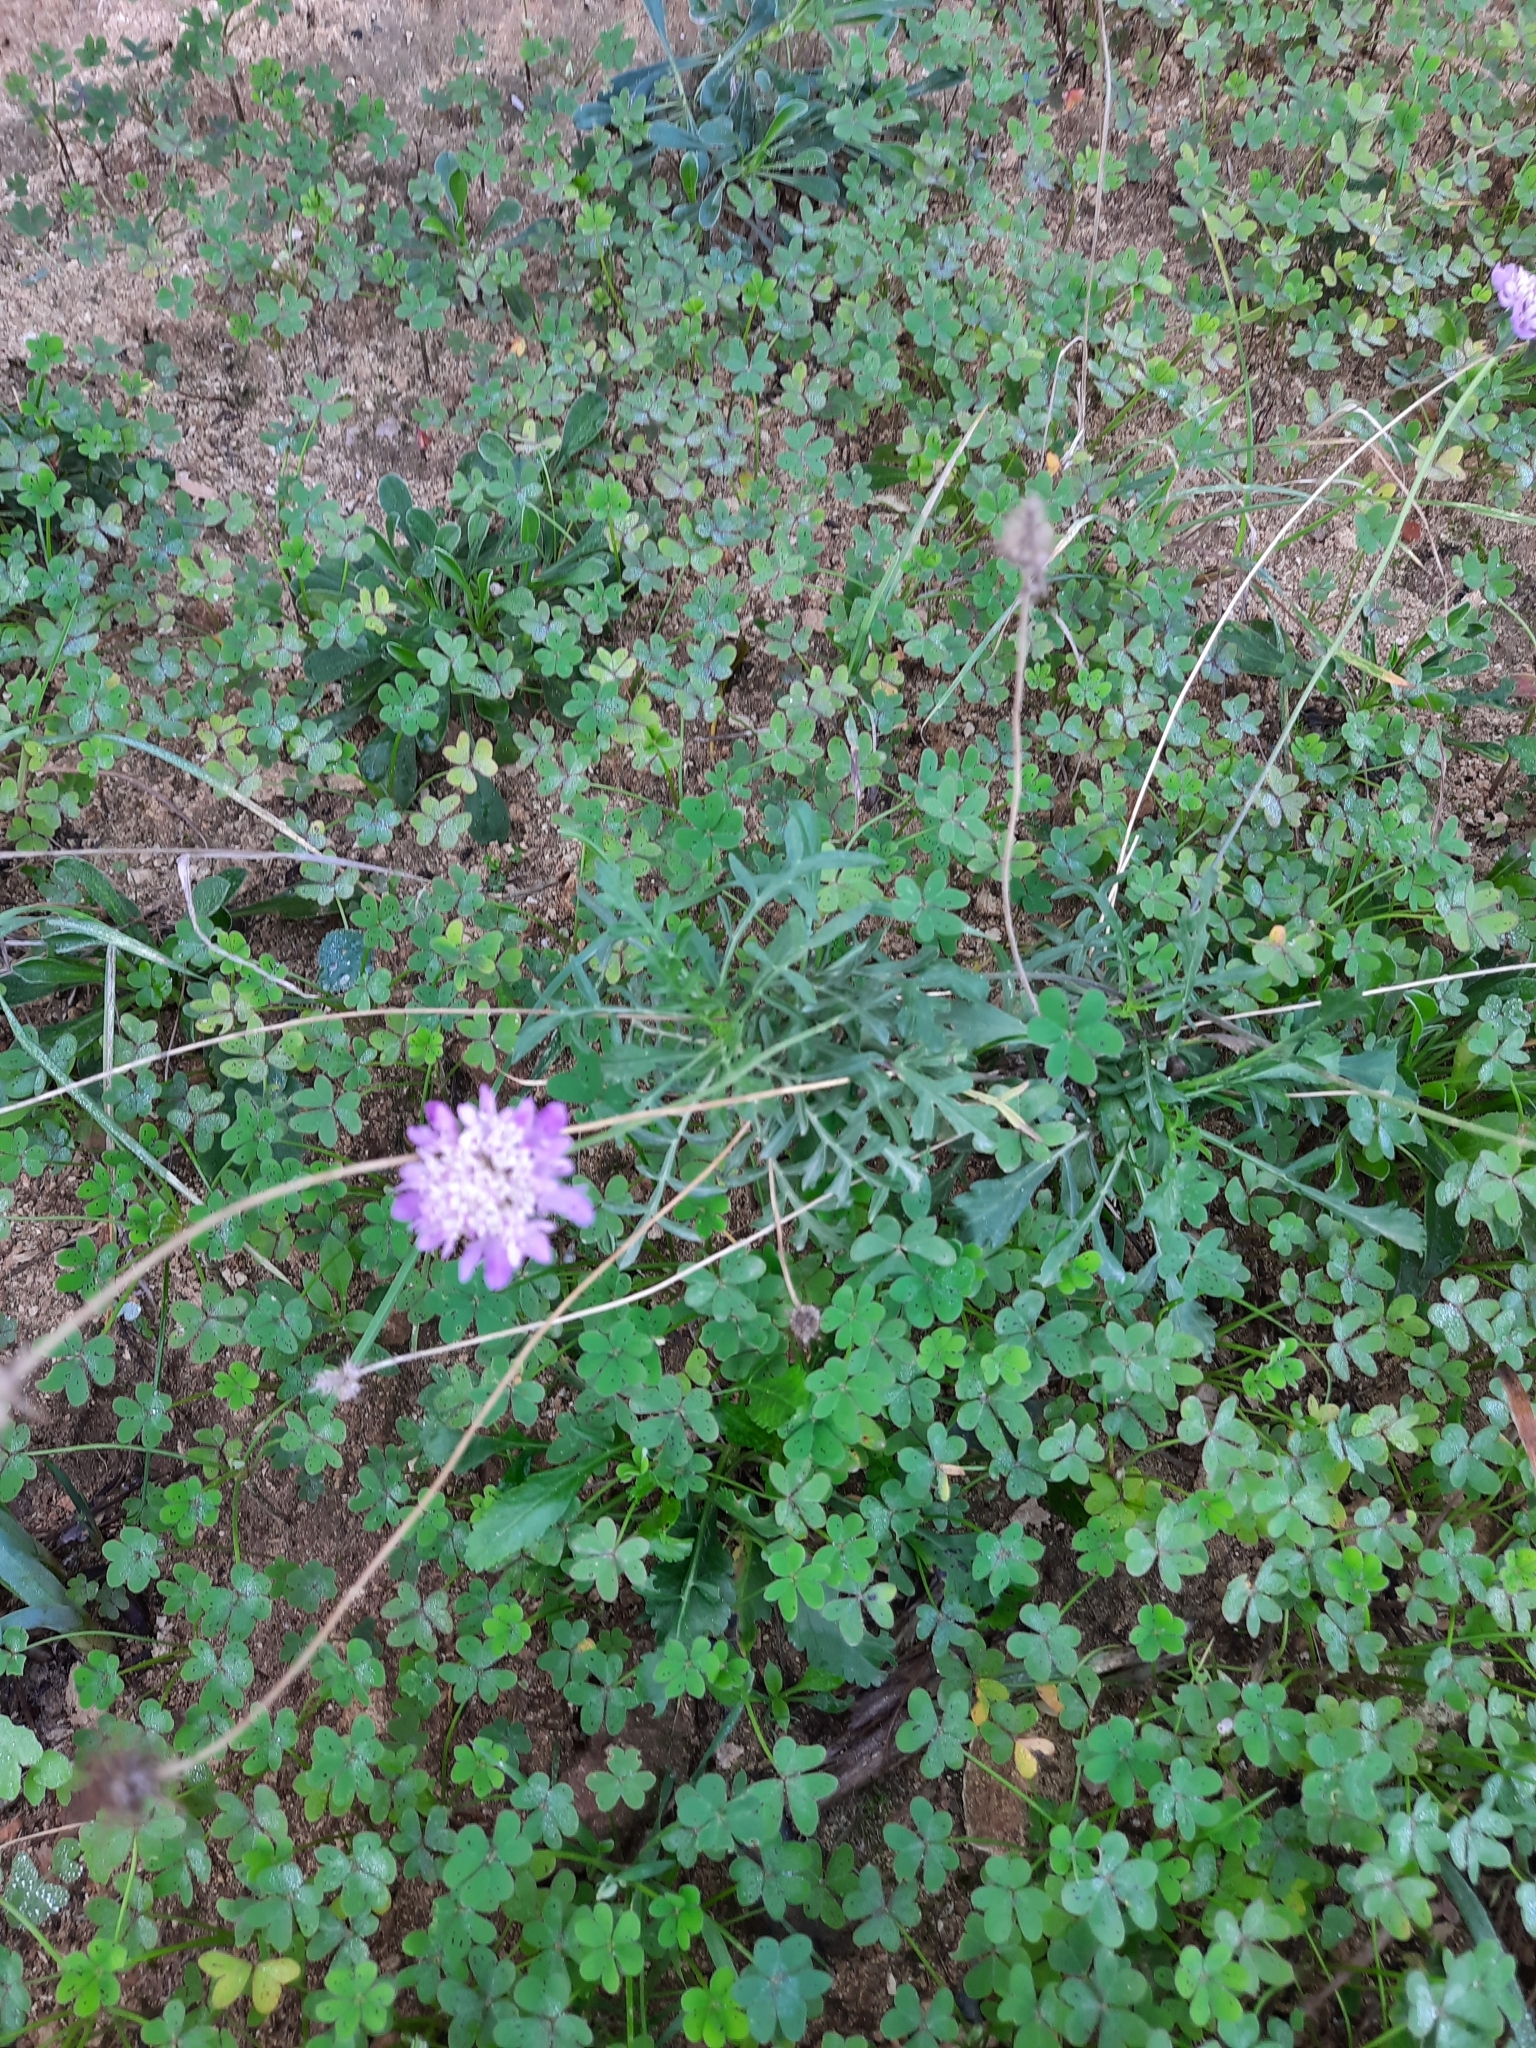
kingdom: Plantae
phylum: Tracheophyta
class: Magnoliopsida
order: Dipsacales
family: Caprifoliaceae
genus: Sixalix
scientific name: Sixalix maritima
